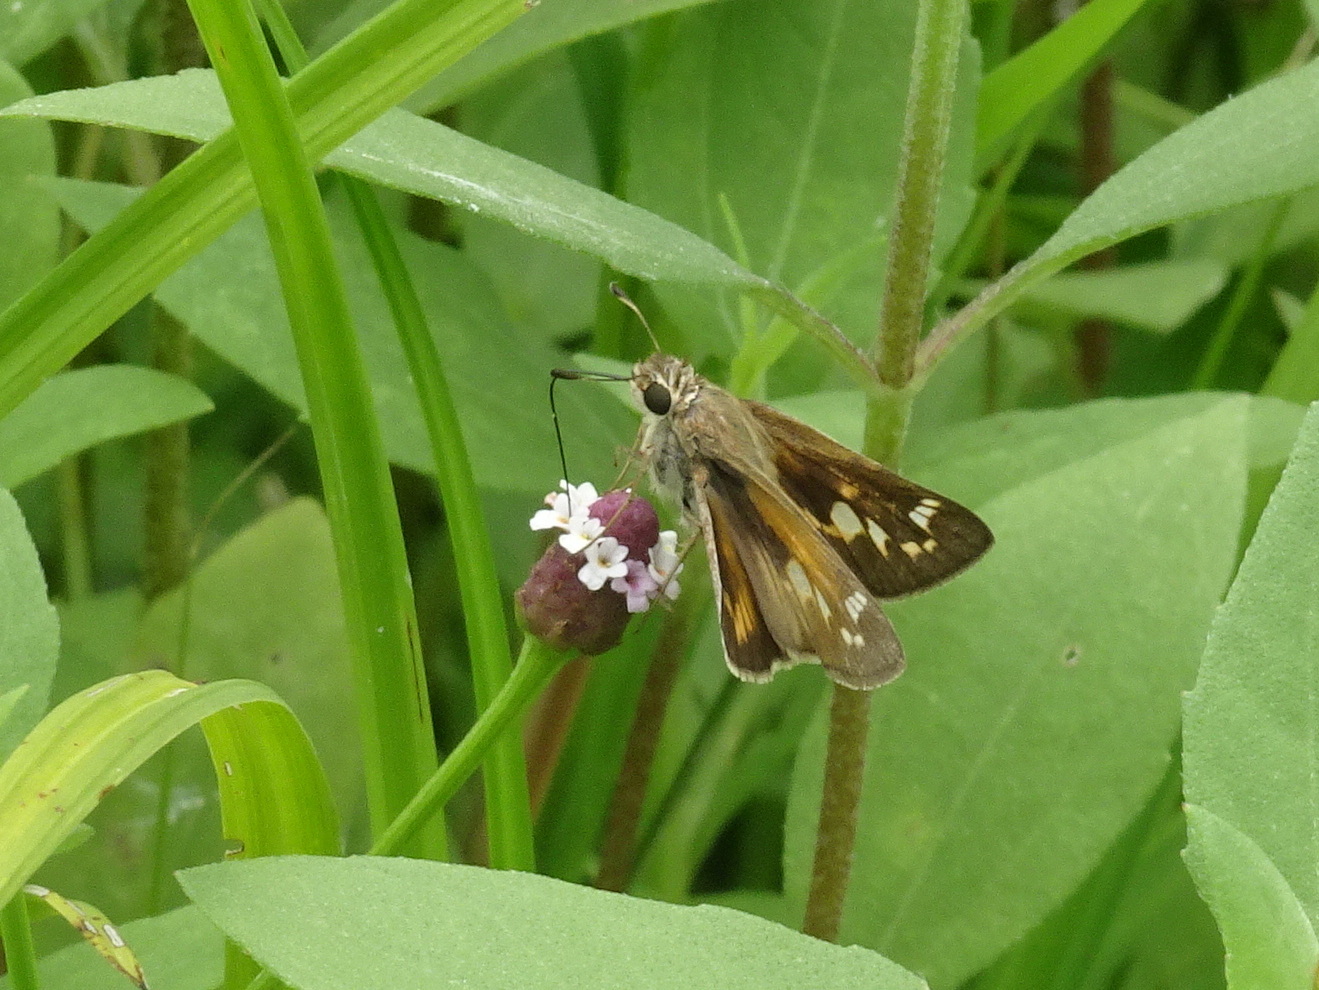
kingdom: Animalia
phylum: Arthropoda
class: Insecta
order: Lepidoptera
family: Hesperiidae
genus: Atalopedes
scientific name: Atalopedes
